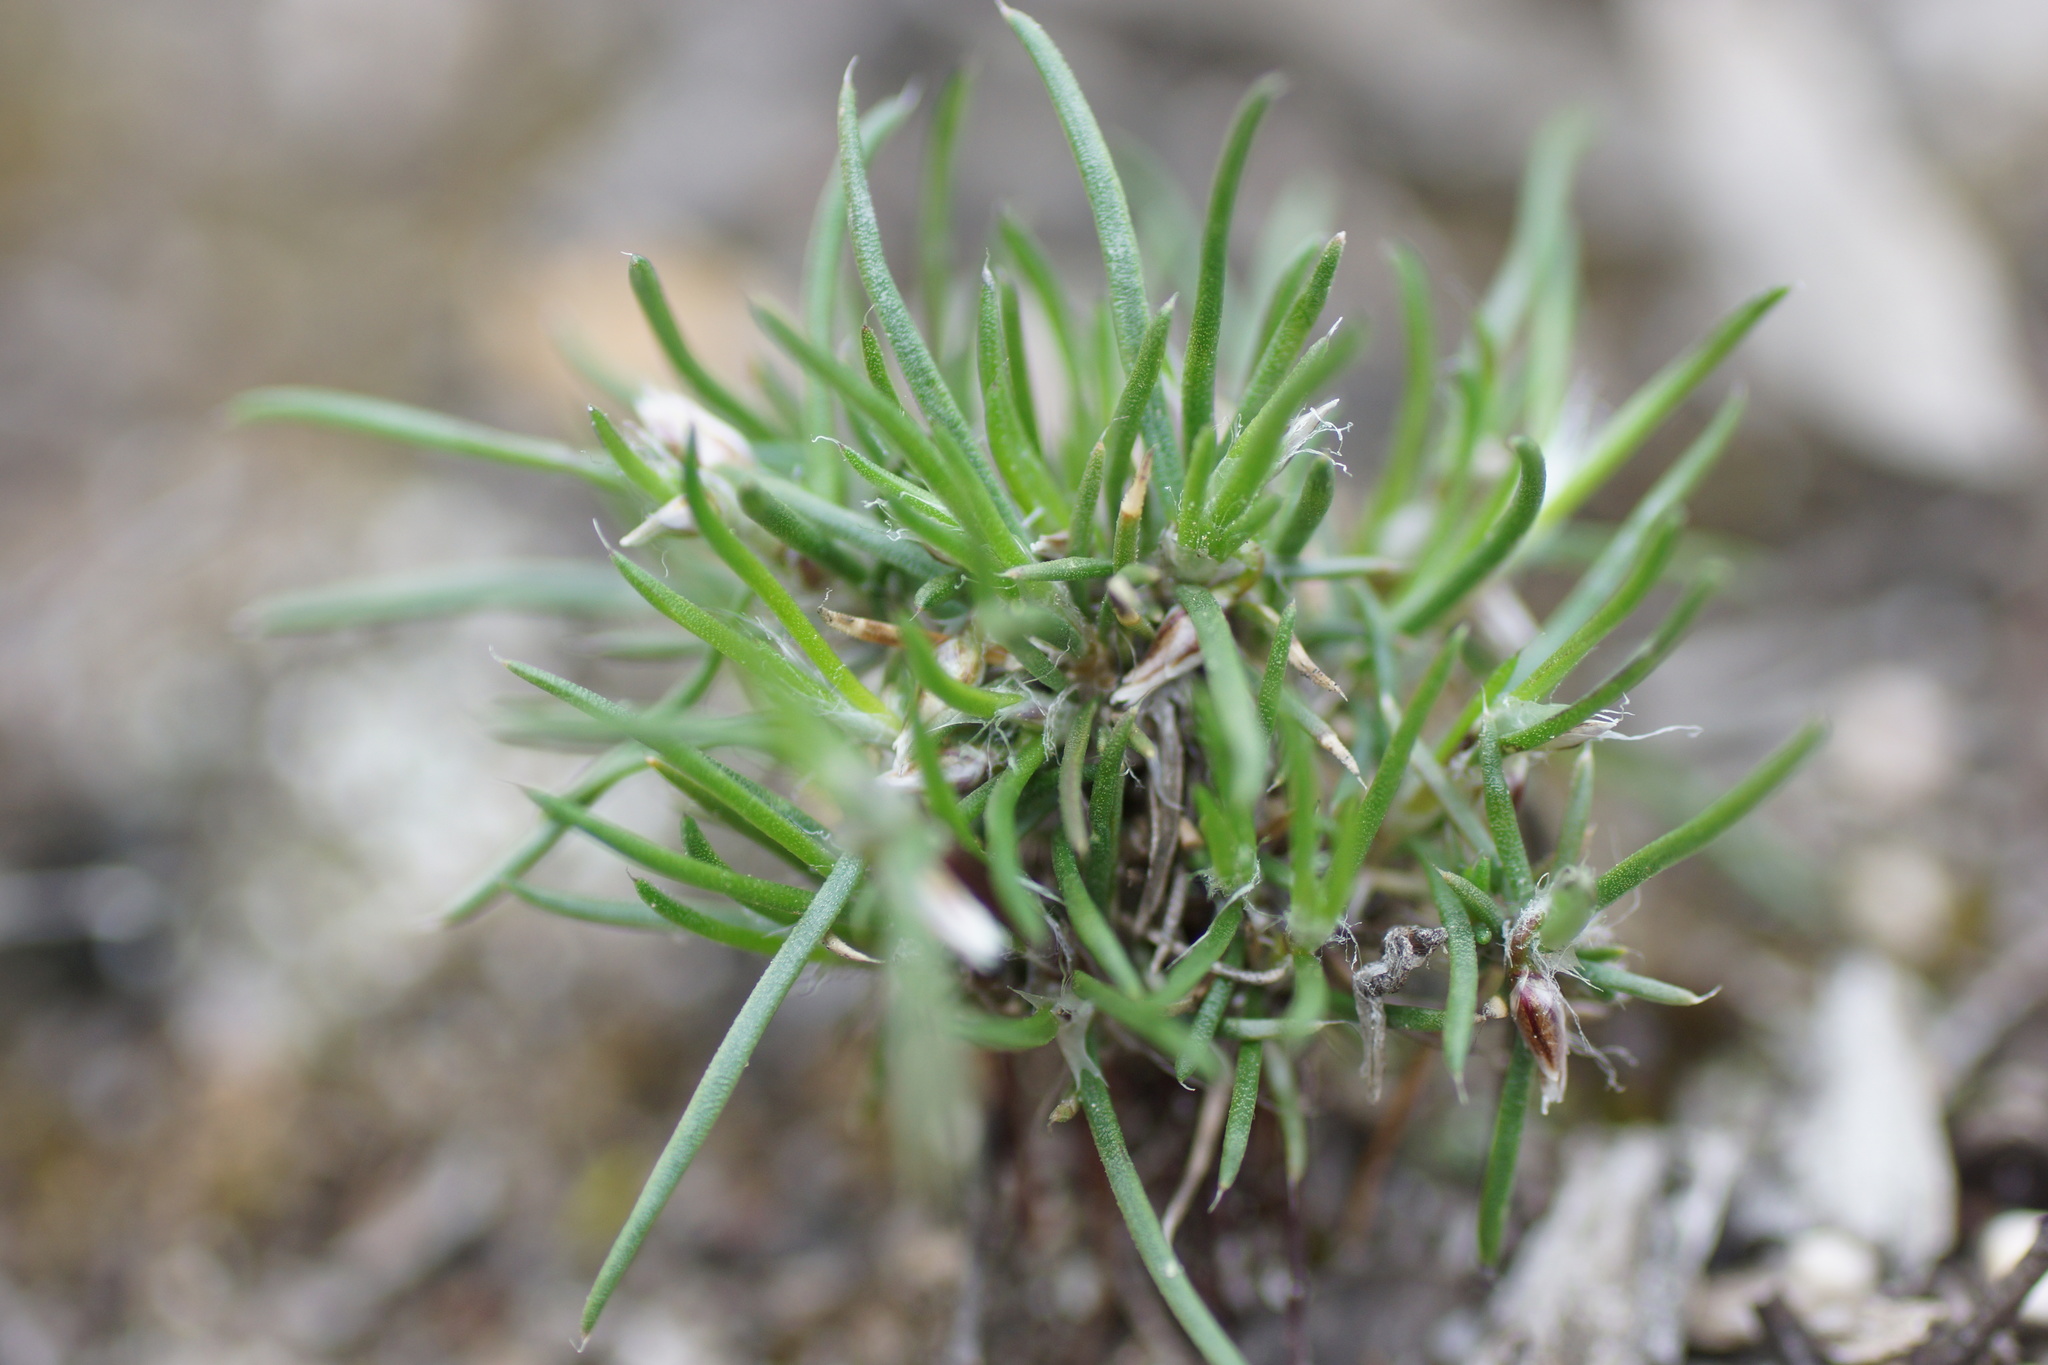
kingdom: Plantae
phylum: Tracheophyta
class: Liliopsida
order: Asparagales
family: Asparagaceae
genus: Laxmannia
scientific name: Laxmannia orientalis
